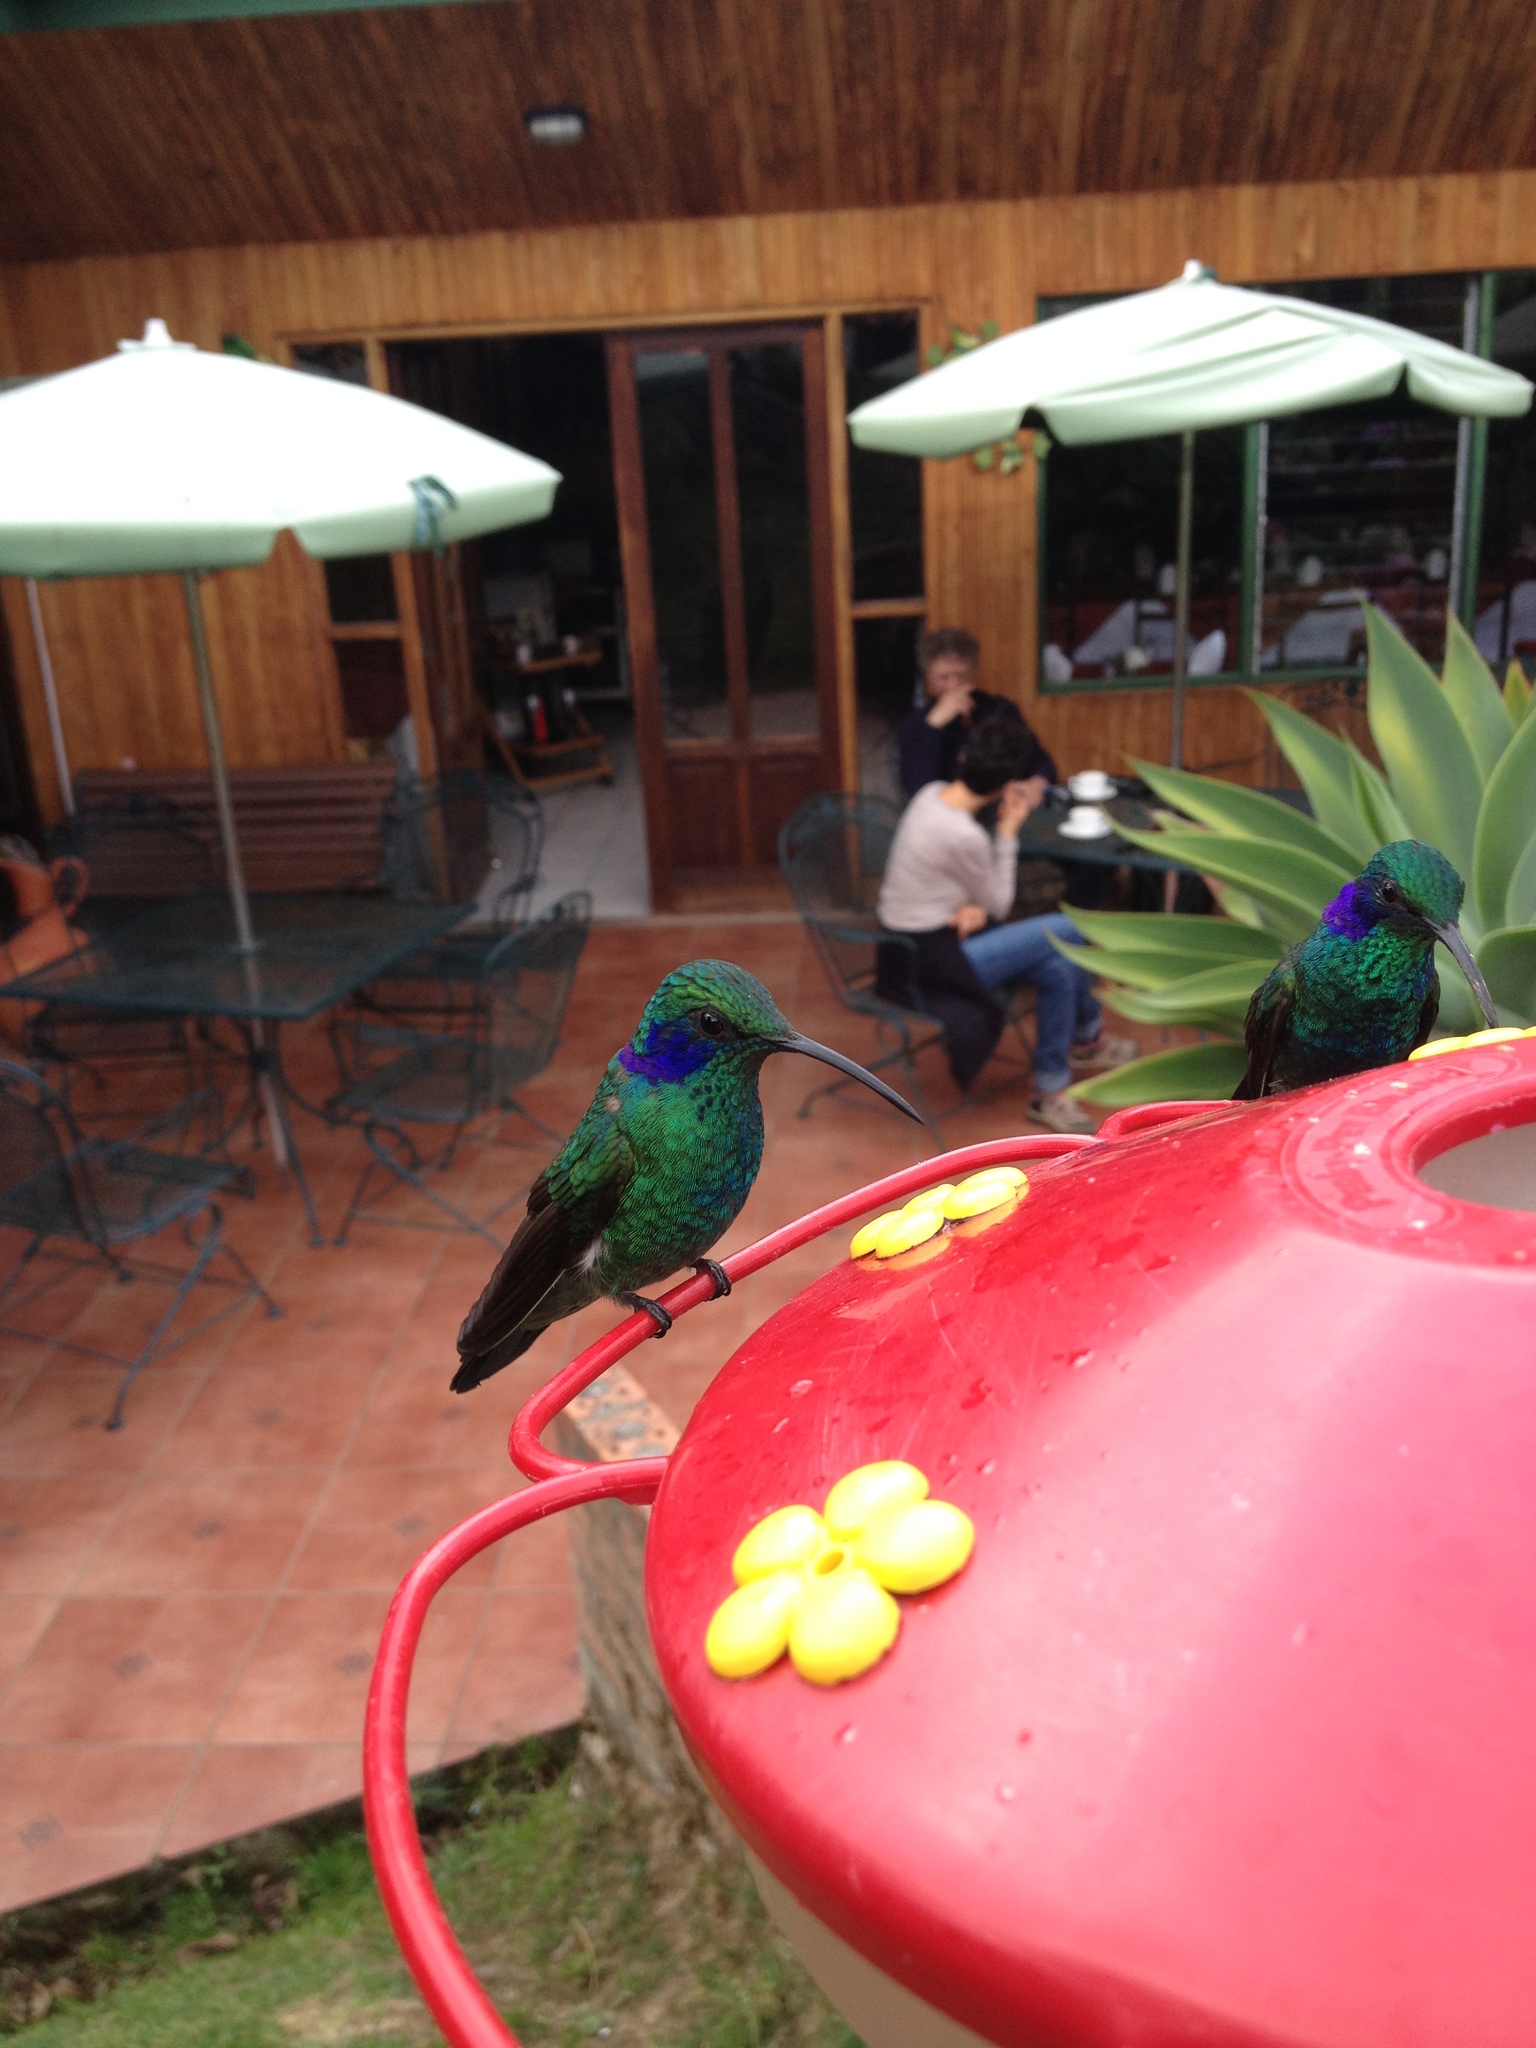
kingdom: Animalia
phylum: Chordata
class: Aves
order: Apodiformes
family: Trochilidae
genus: Colibri
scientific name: Colibri cyanotus
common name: Lesser violetear
